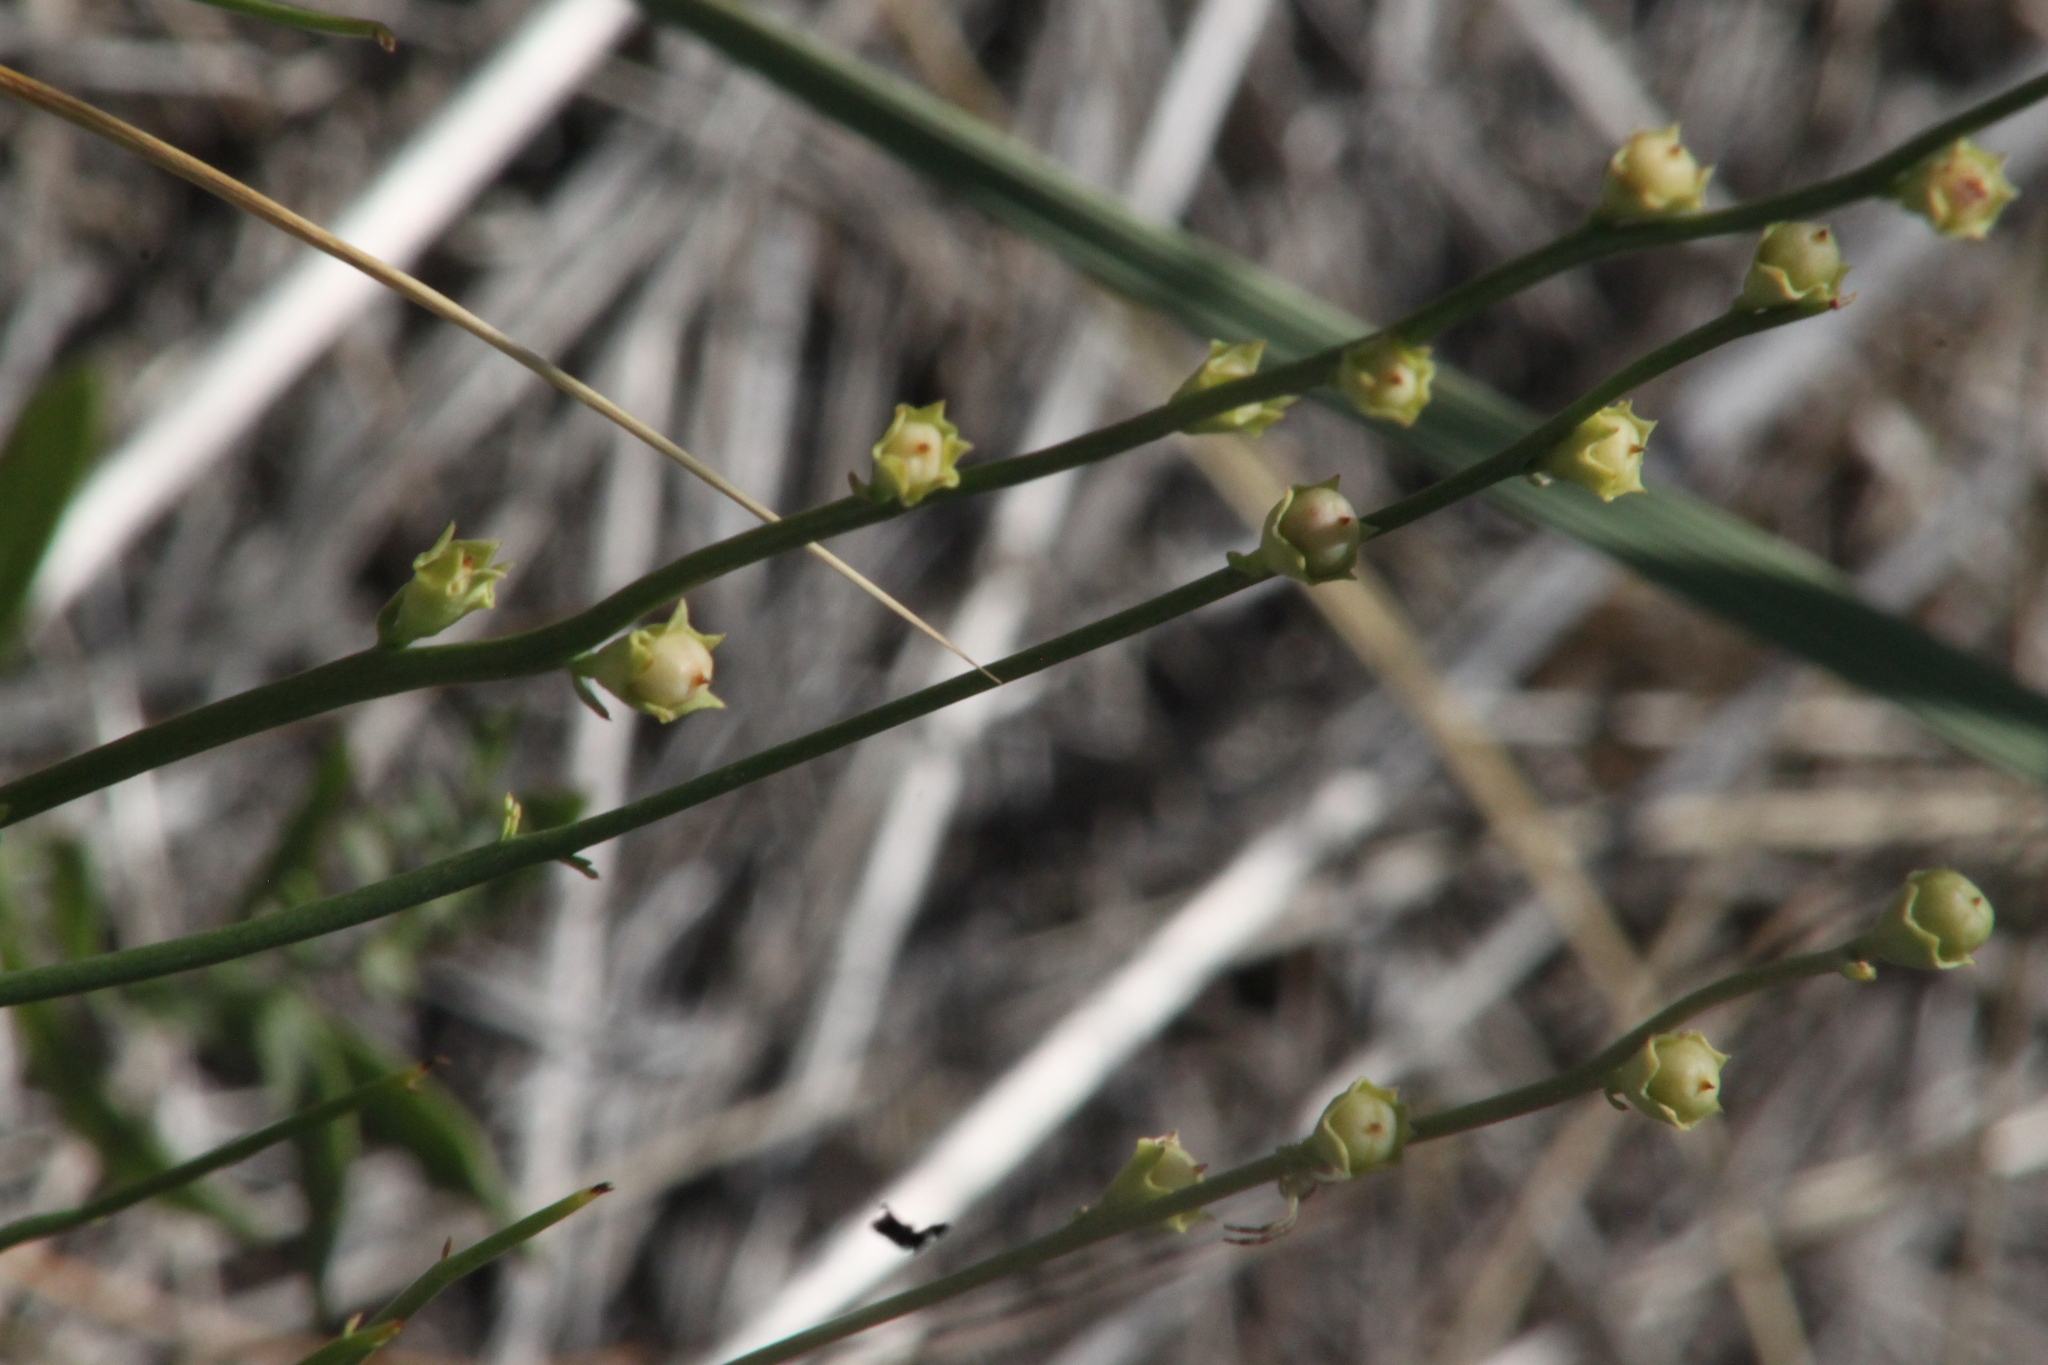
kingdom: Plantae
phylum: Tracheophyta
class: Magnoliopsida
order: Lamiales
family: Mazaceae
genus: Dodartia
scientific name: Dodartia orientalis
